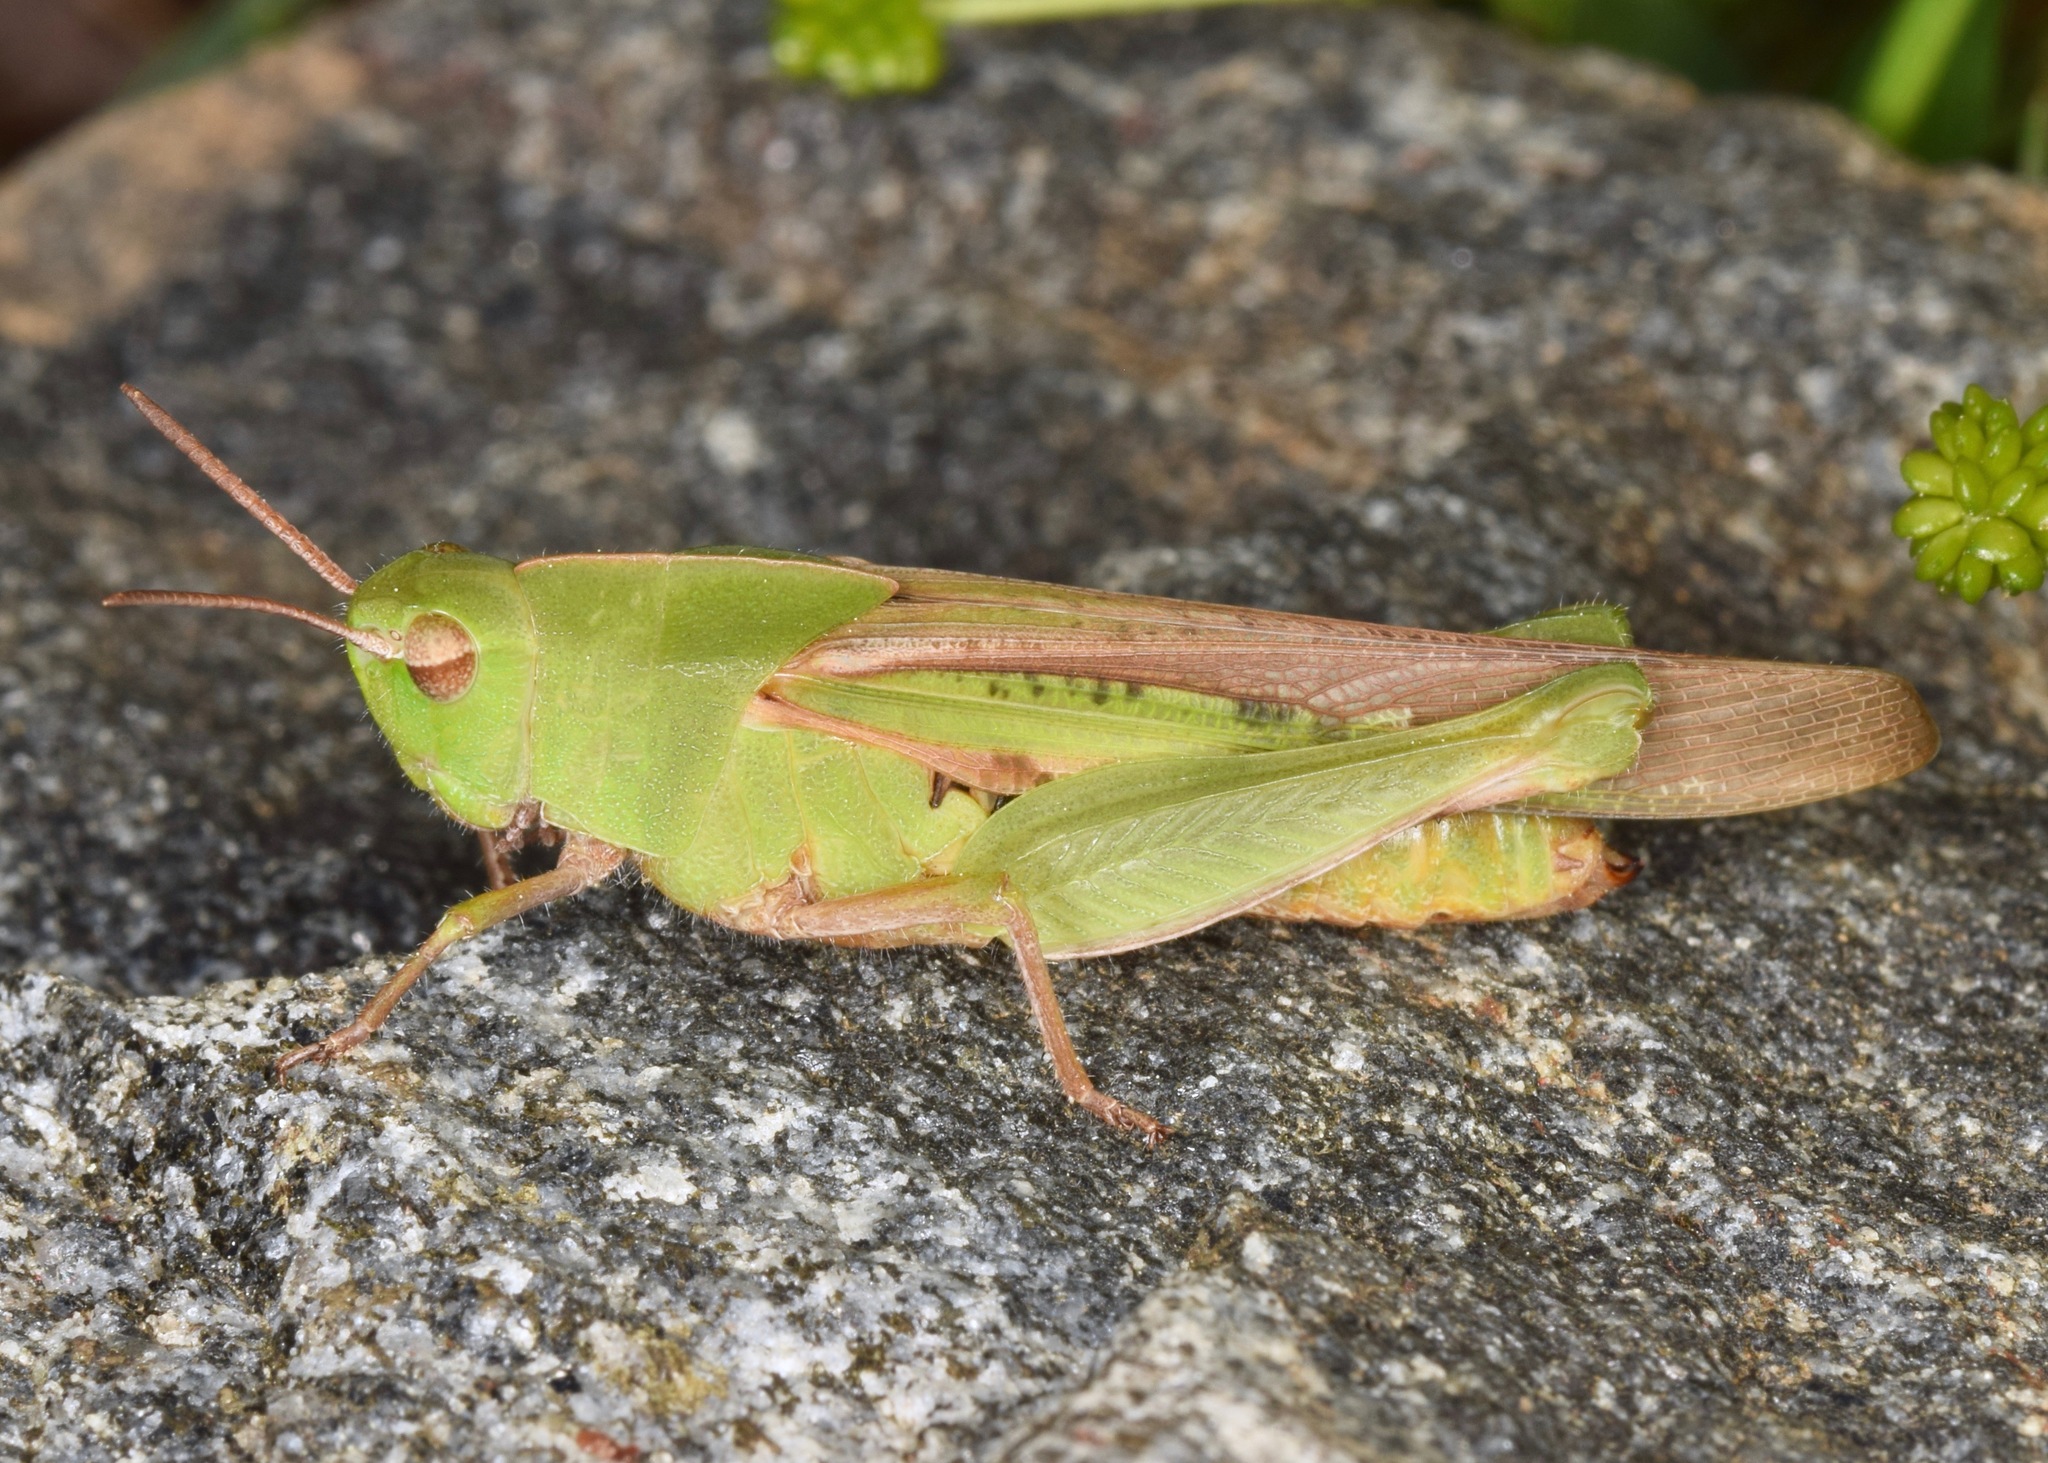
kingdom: Animalia
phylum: Arthropoda
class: Insecta
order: Orthoptera
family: Acrididae
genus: Chortophaga
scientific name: Chortophaga viridifasciata
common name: Green-striped grasshopper
